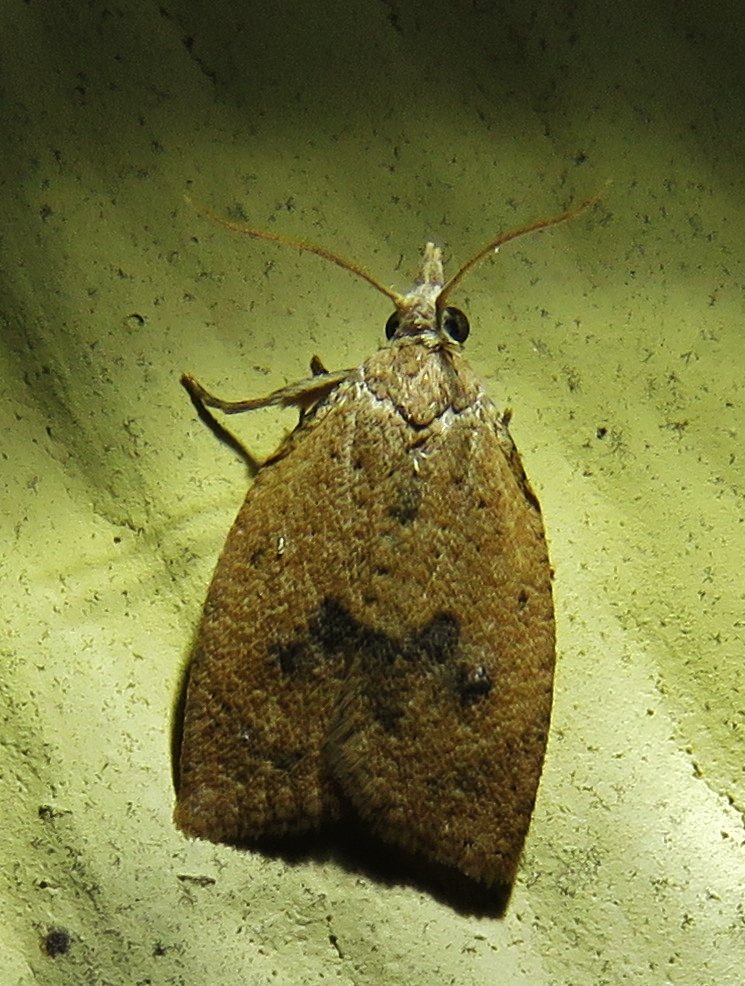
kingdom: Animalia
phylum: Arthropoda
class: Insecta
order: Lepidoptera
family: Tortricidae
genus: Sparganothoides
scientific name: Sparganothoides lentiginosana
